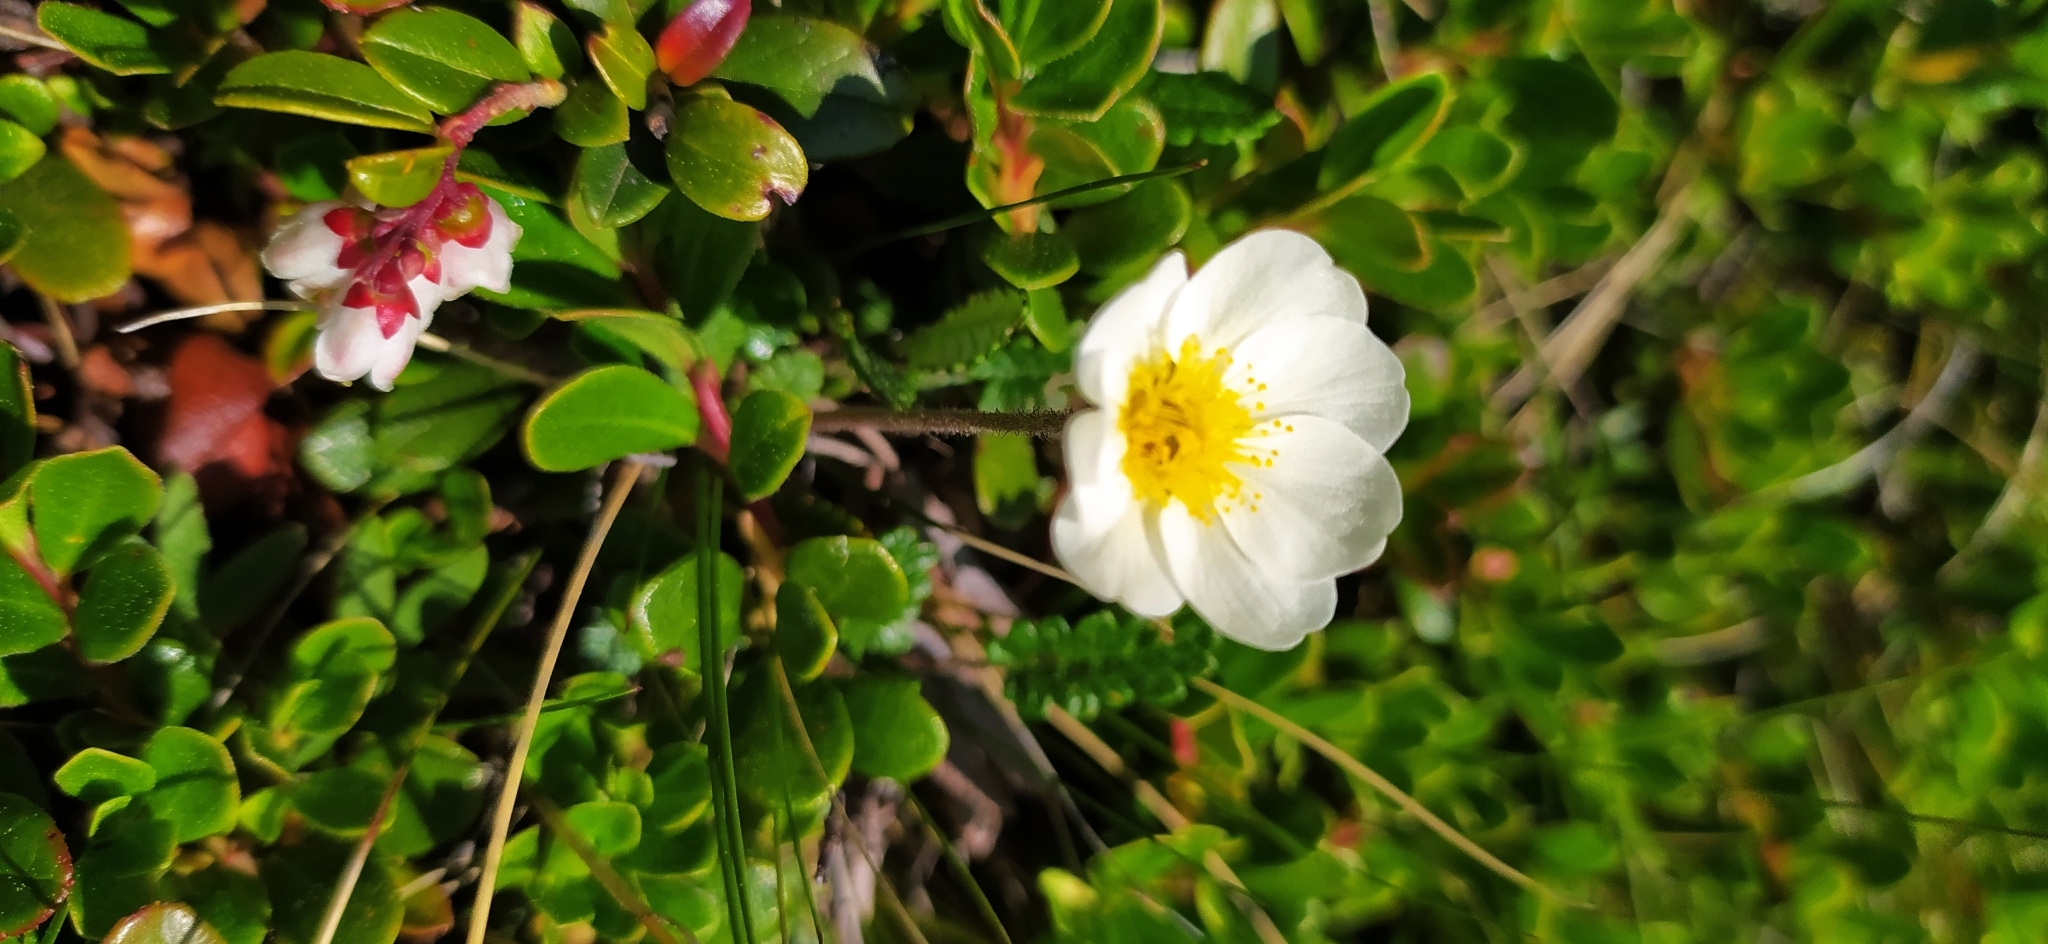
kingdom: Plantae
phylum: Tracheophyta
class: Magnoliopsida
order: Rosales
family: Rosaceae
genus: Dryas
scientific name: Dryas octopetala
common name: Eight-petal mountain-avens
